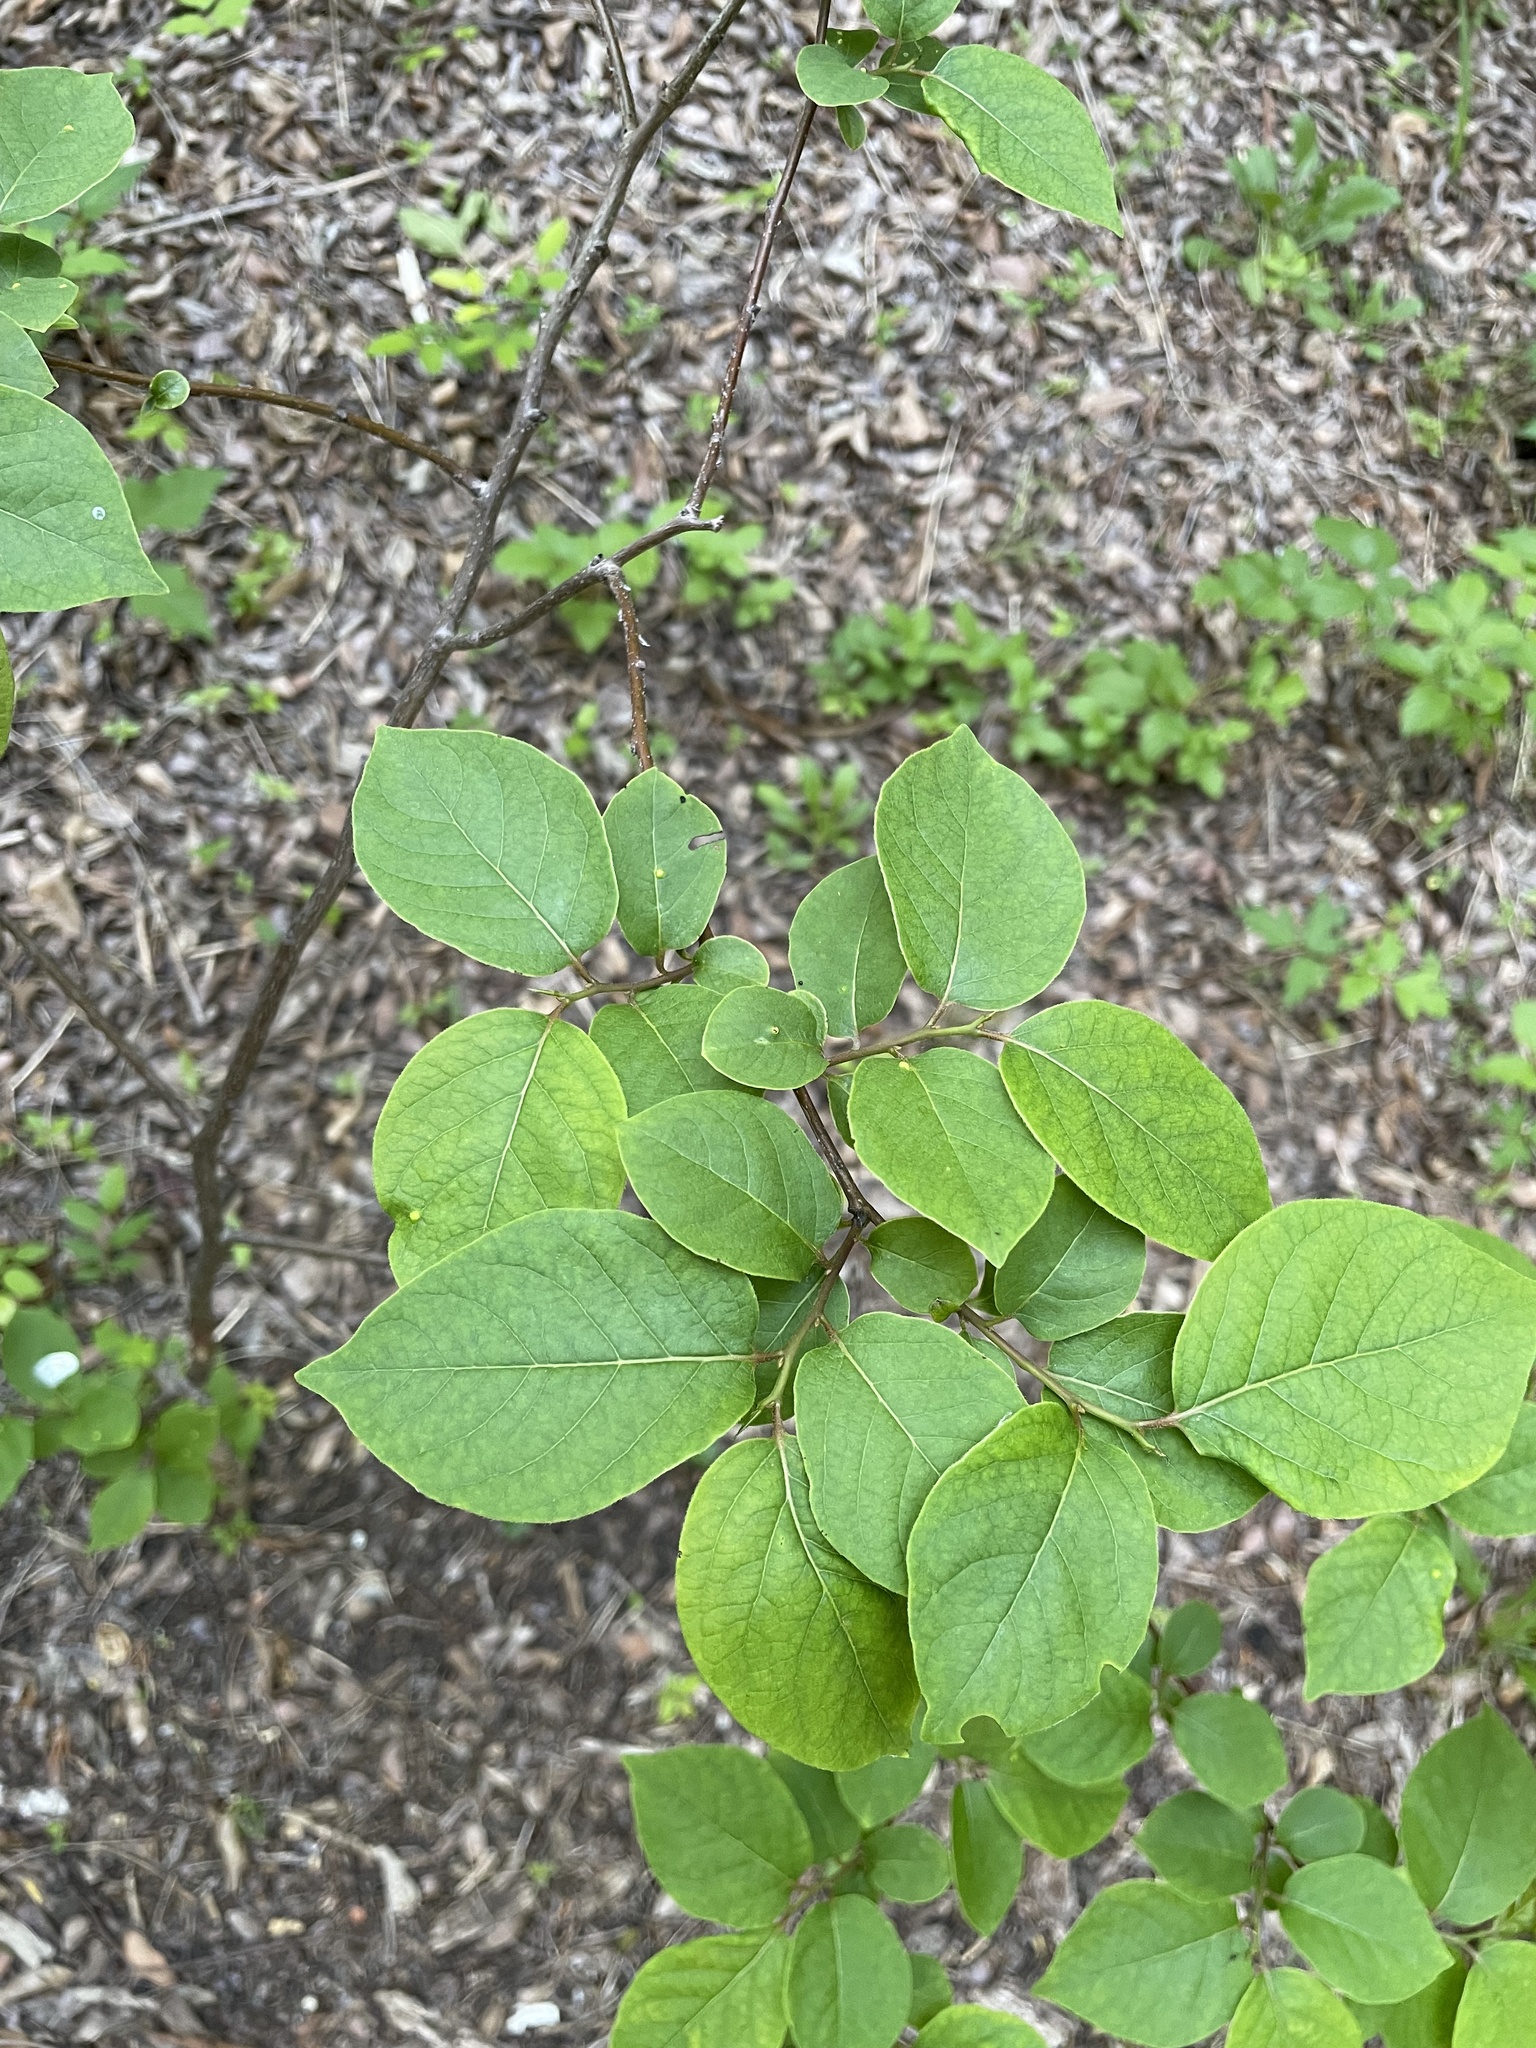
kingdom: Plantae
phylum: Tracheophyta
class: Magnoliopsida
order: Rosales
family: Rosaceae
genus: Prunus
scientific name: Prunus mexicana
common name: Mexican plum
